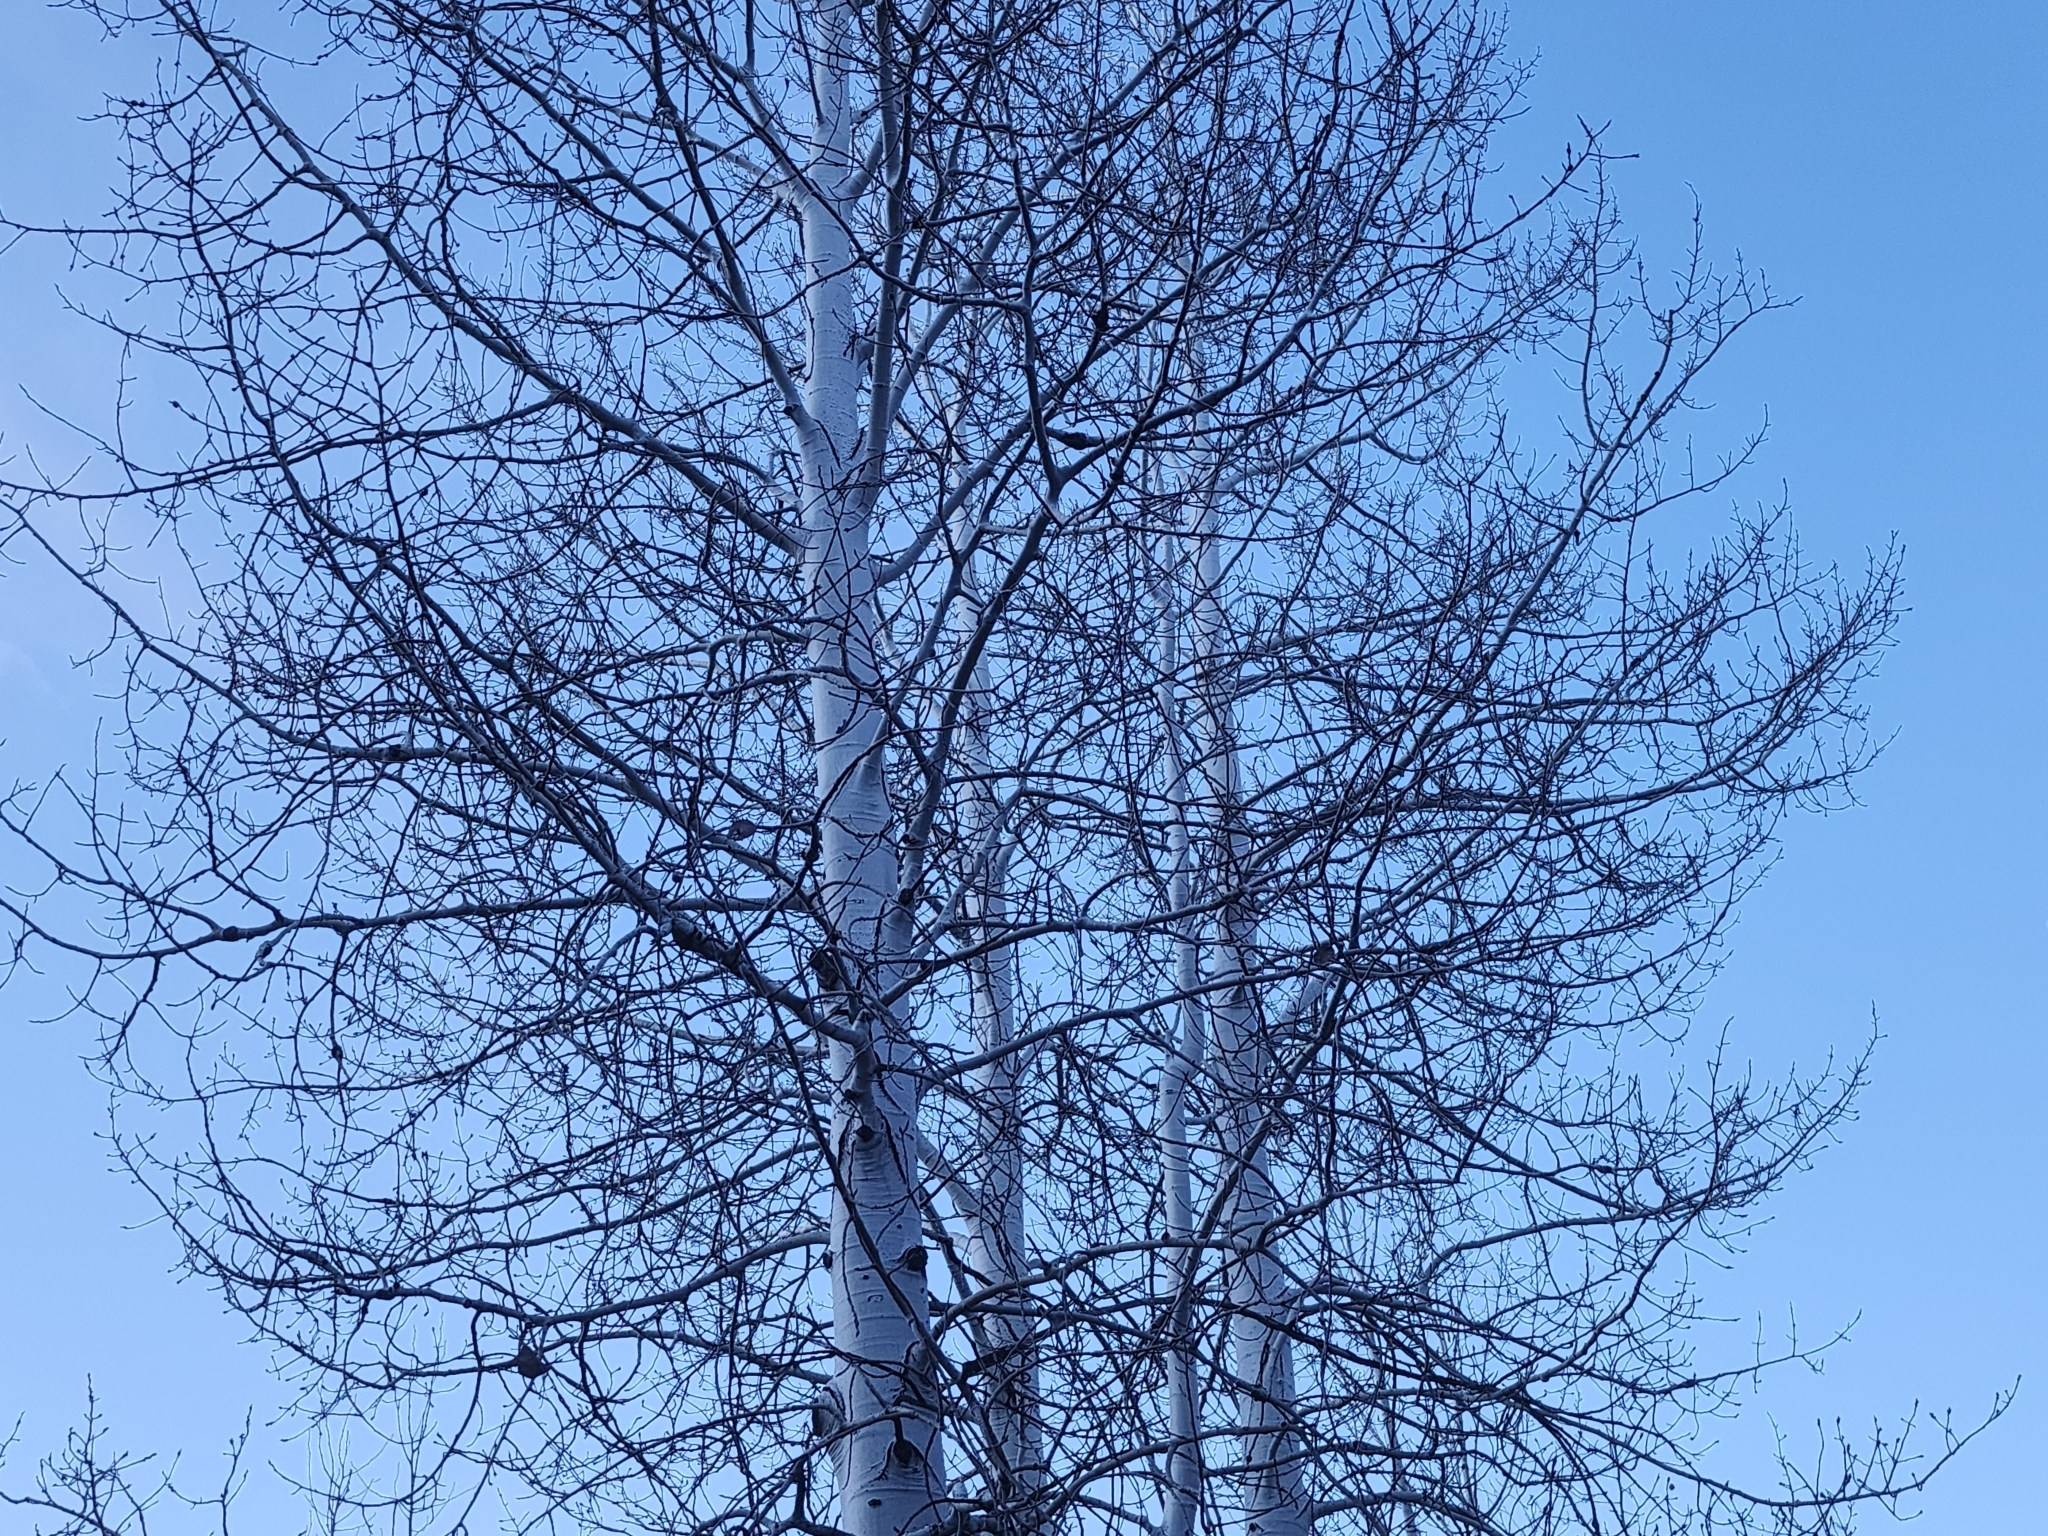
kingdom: Plantae
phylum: Tracheophyta
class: Magnoliopsida
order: Malpighiales
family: Salicaceae
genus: Populus
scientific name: Populus tremuloides
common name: Quaking aspen
